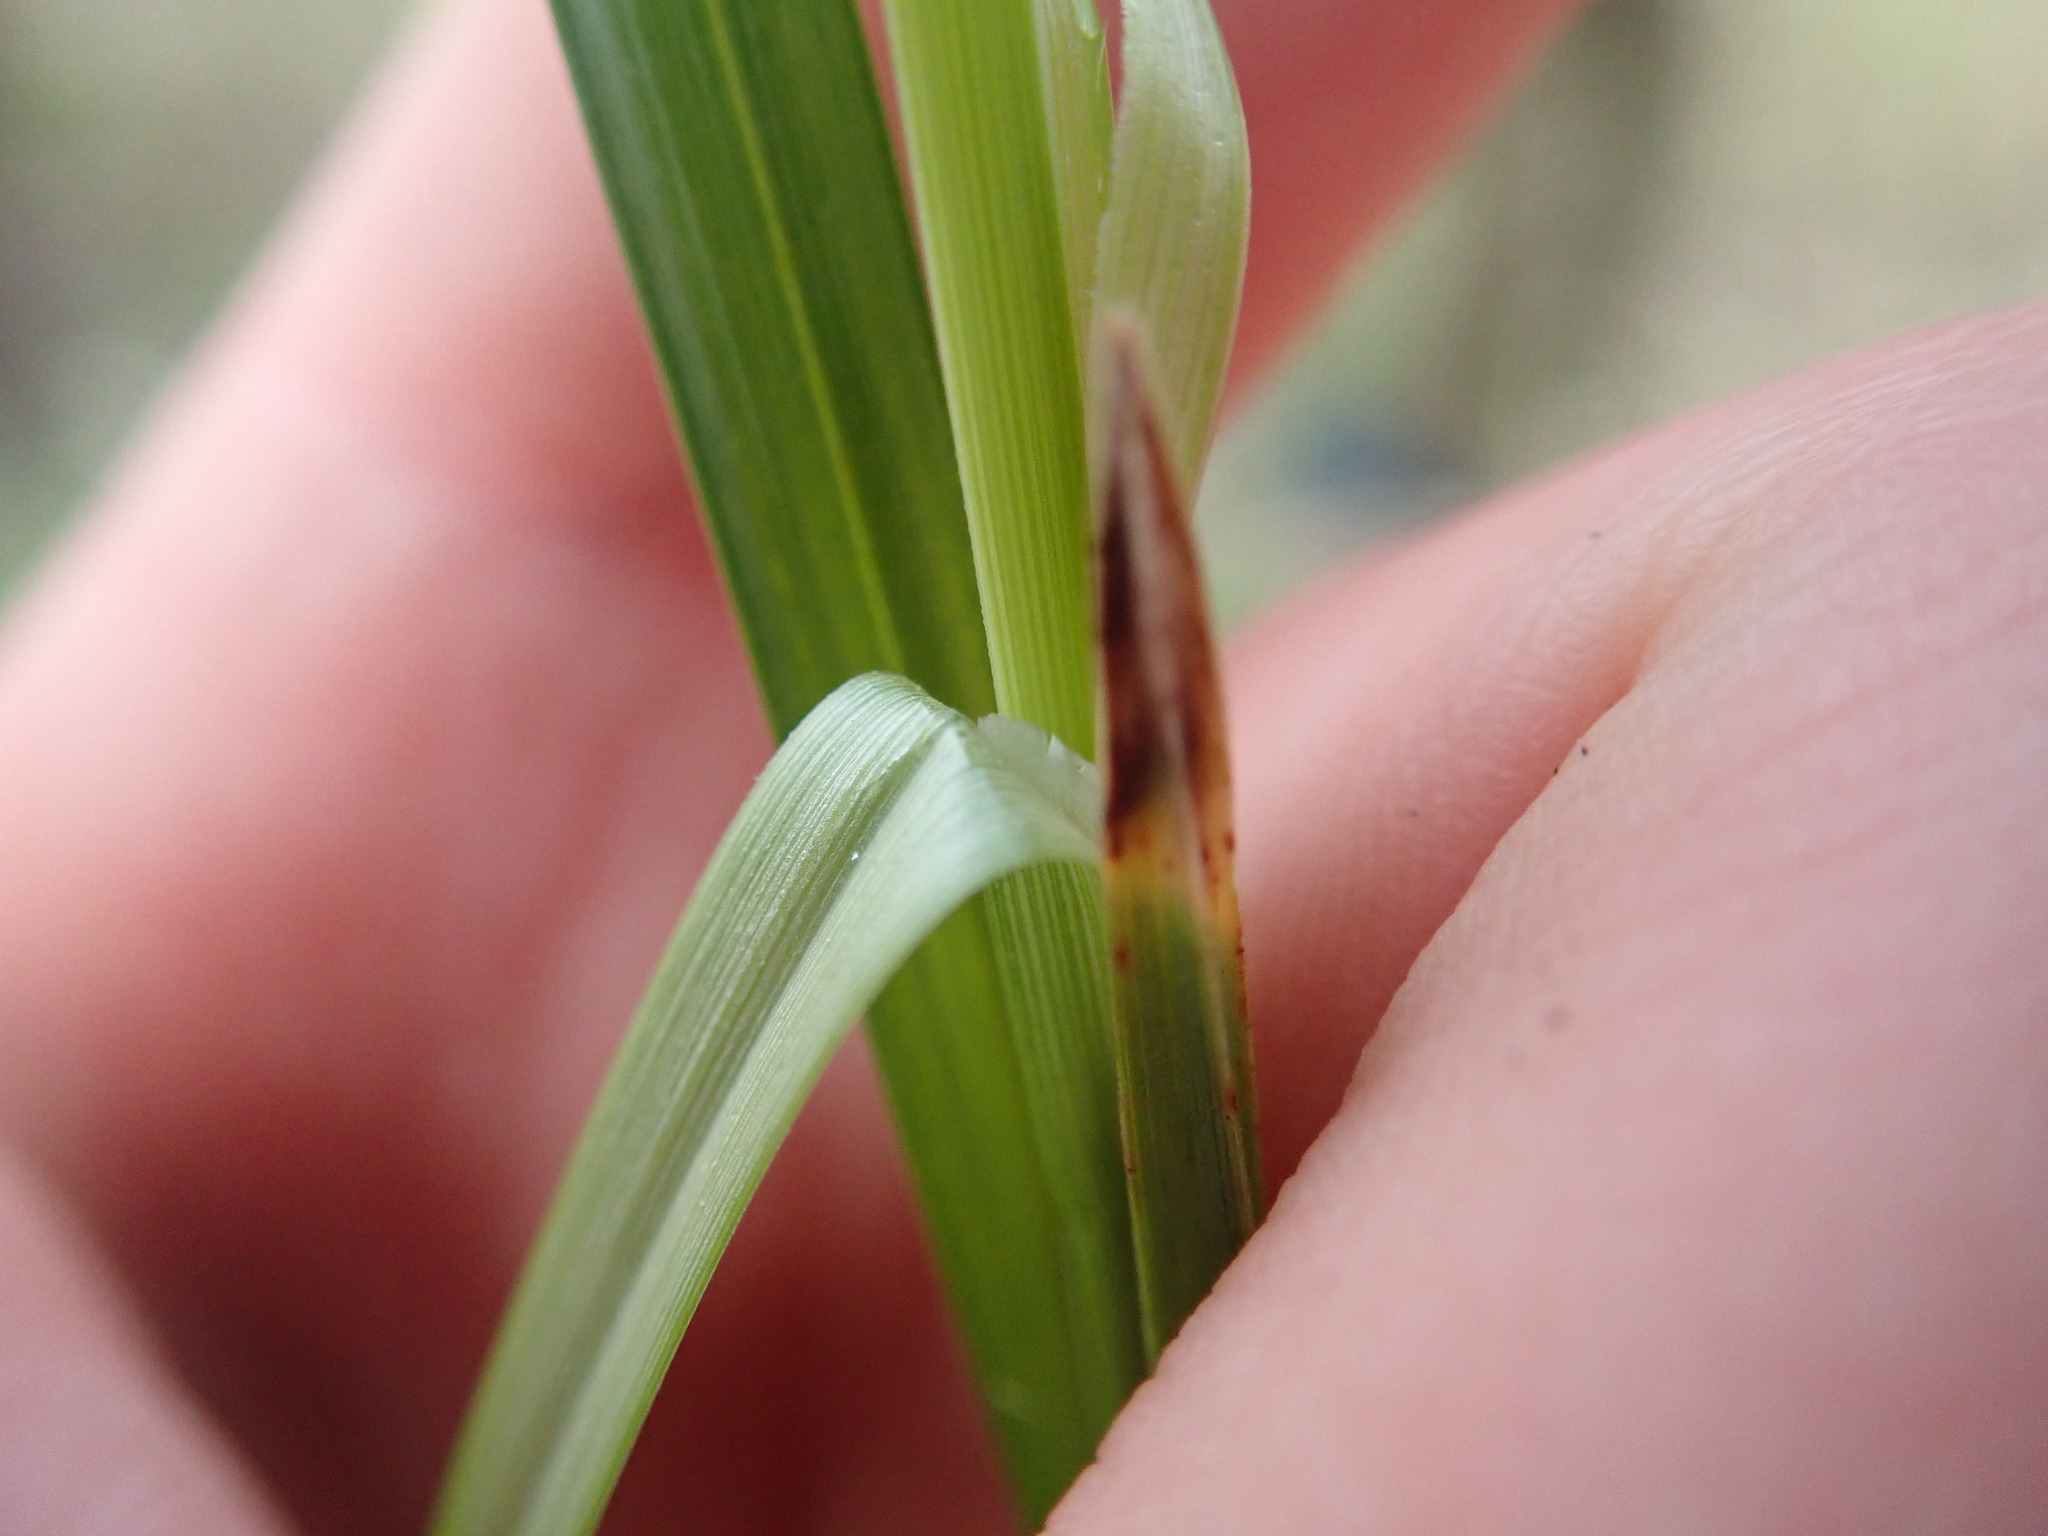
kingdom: Plantae
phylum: Tracheophyta
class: Liliopsida
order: Poales
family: Cyperaceae
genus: Carex
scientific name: Carex
